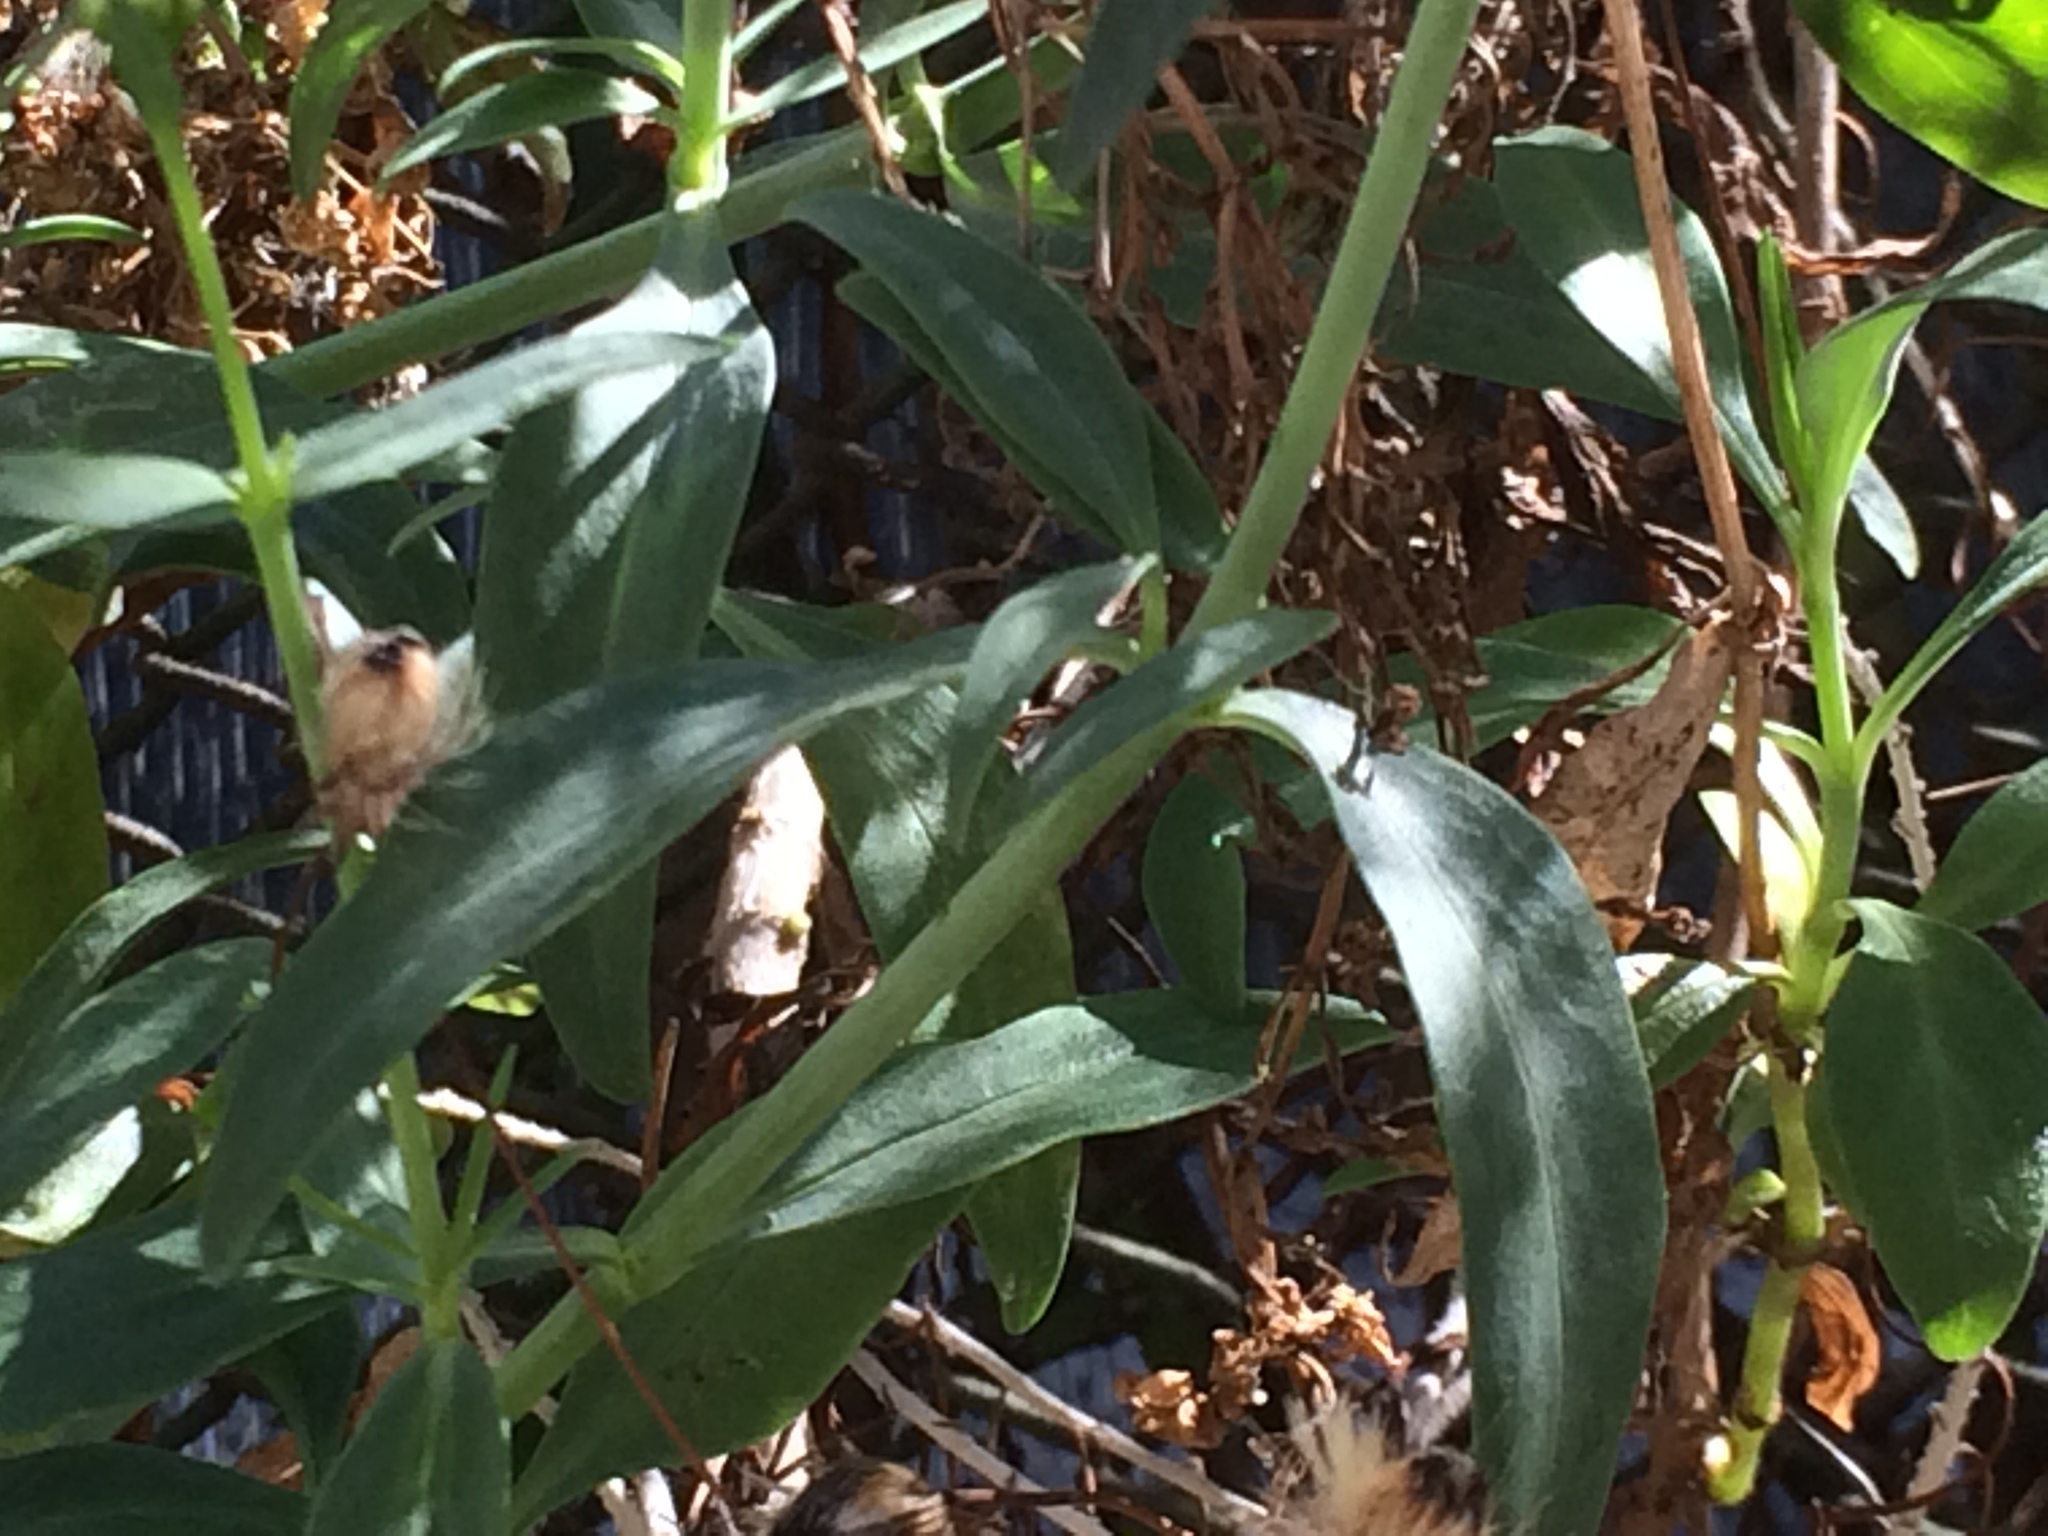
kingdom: Plantae
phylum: Tracheophyta
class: Magnoliopsida
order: Dipsacales
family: Caprifoliaceae
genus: Centranthus
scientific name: Centranthus ruber
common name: Red valerian
